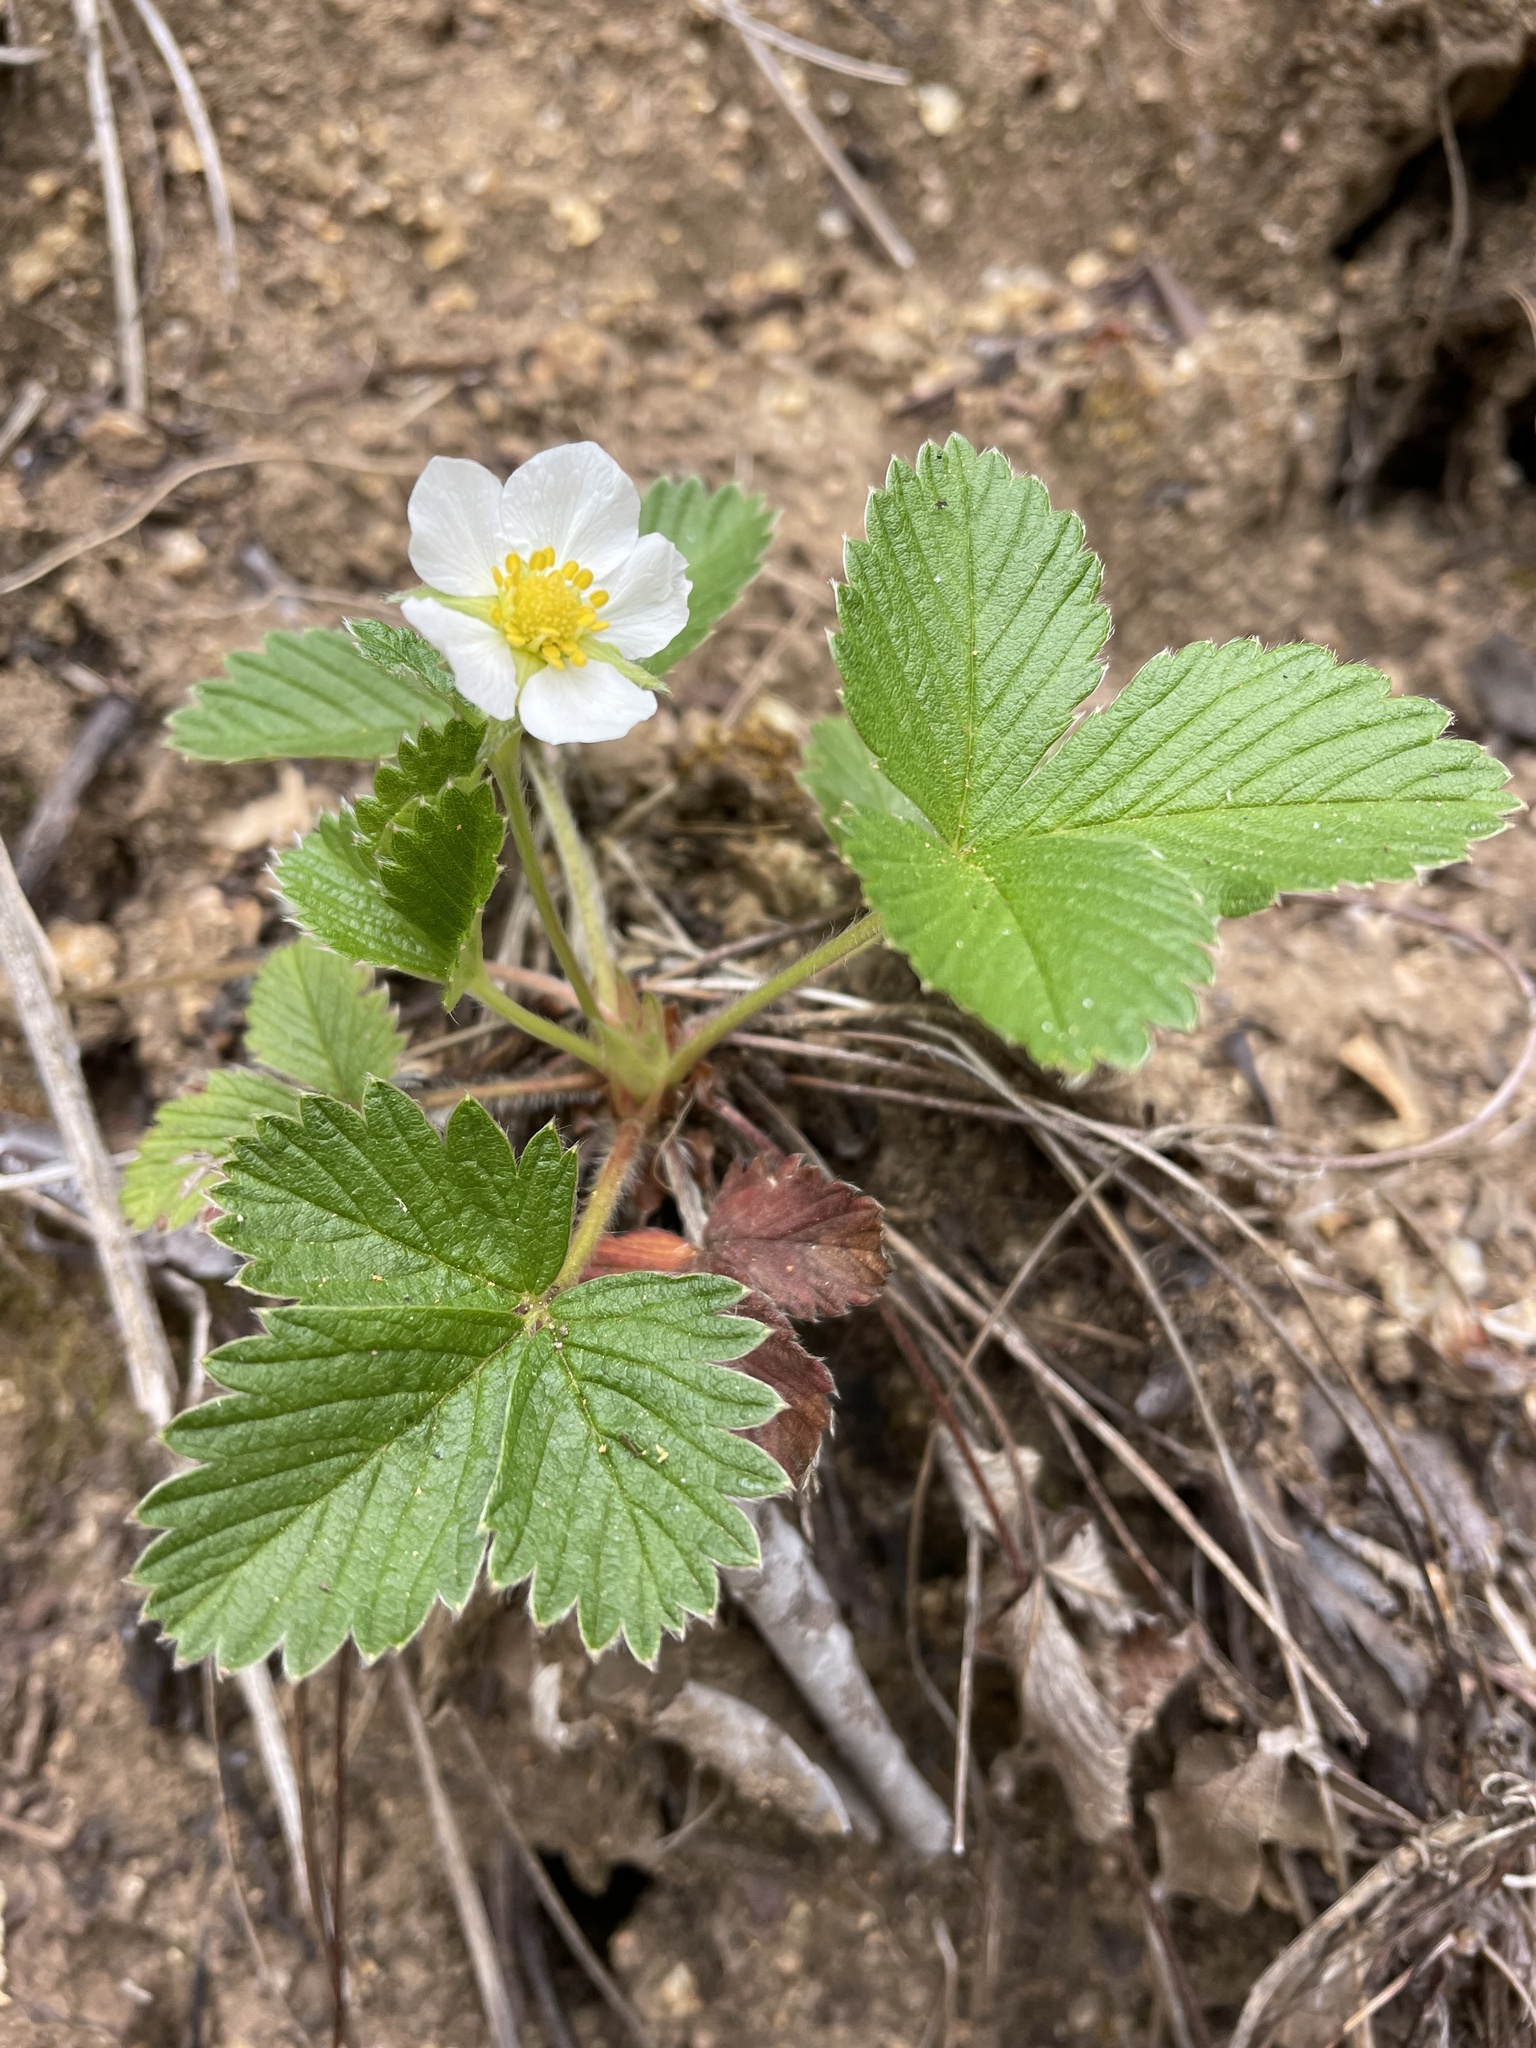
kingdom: Plantae
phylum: Tracheophyta
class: Magnoliopsida
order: Rosales
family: Rosaceae
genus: Fragaria
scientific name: Fragaria vesca
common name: Wild strawberry
